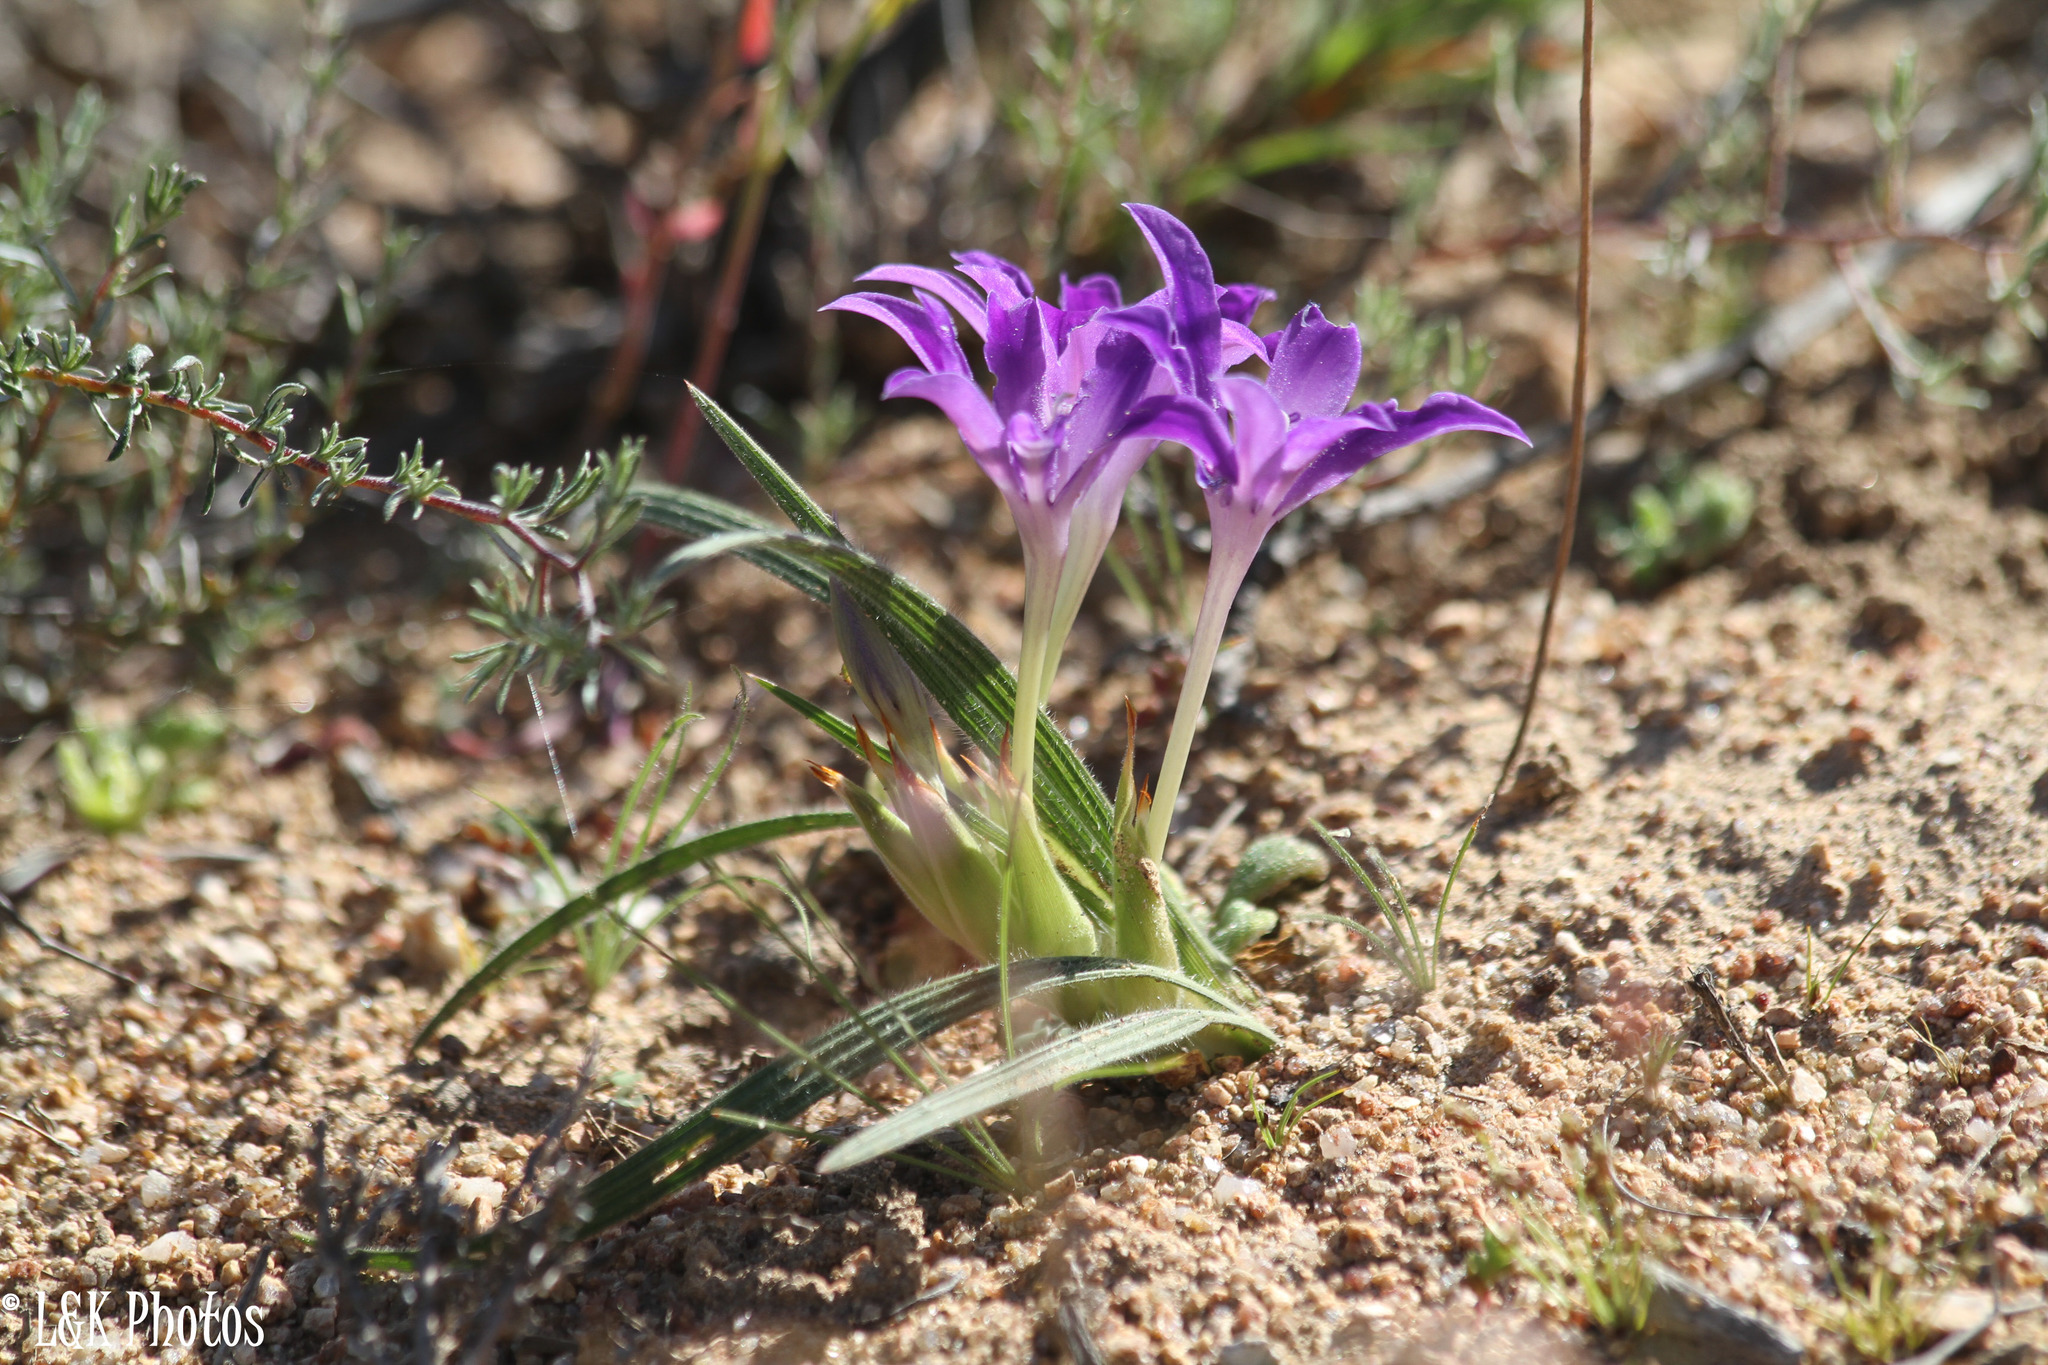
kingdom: Plantae
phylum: Tracheophyta
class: Liliopsida
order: Asparagales
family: Iridaceae
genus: Babiana
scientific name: Babiana curviscapa
